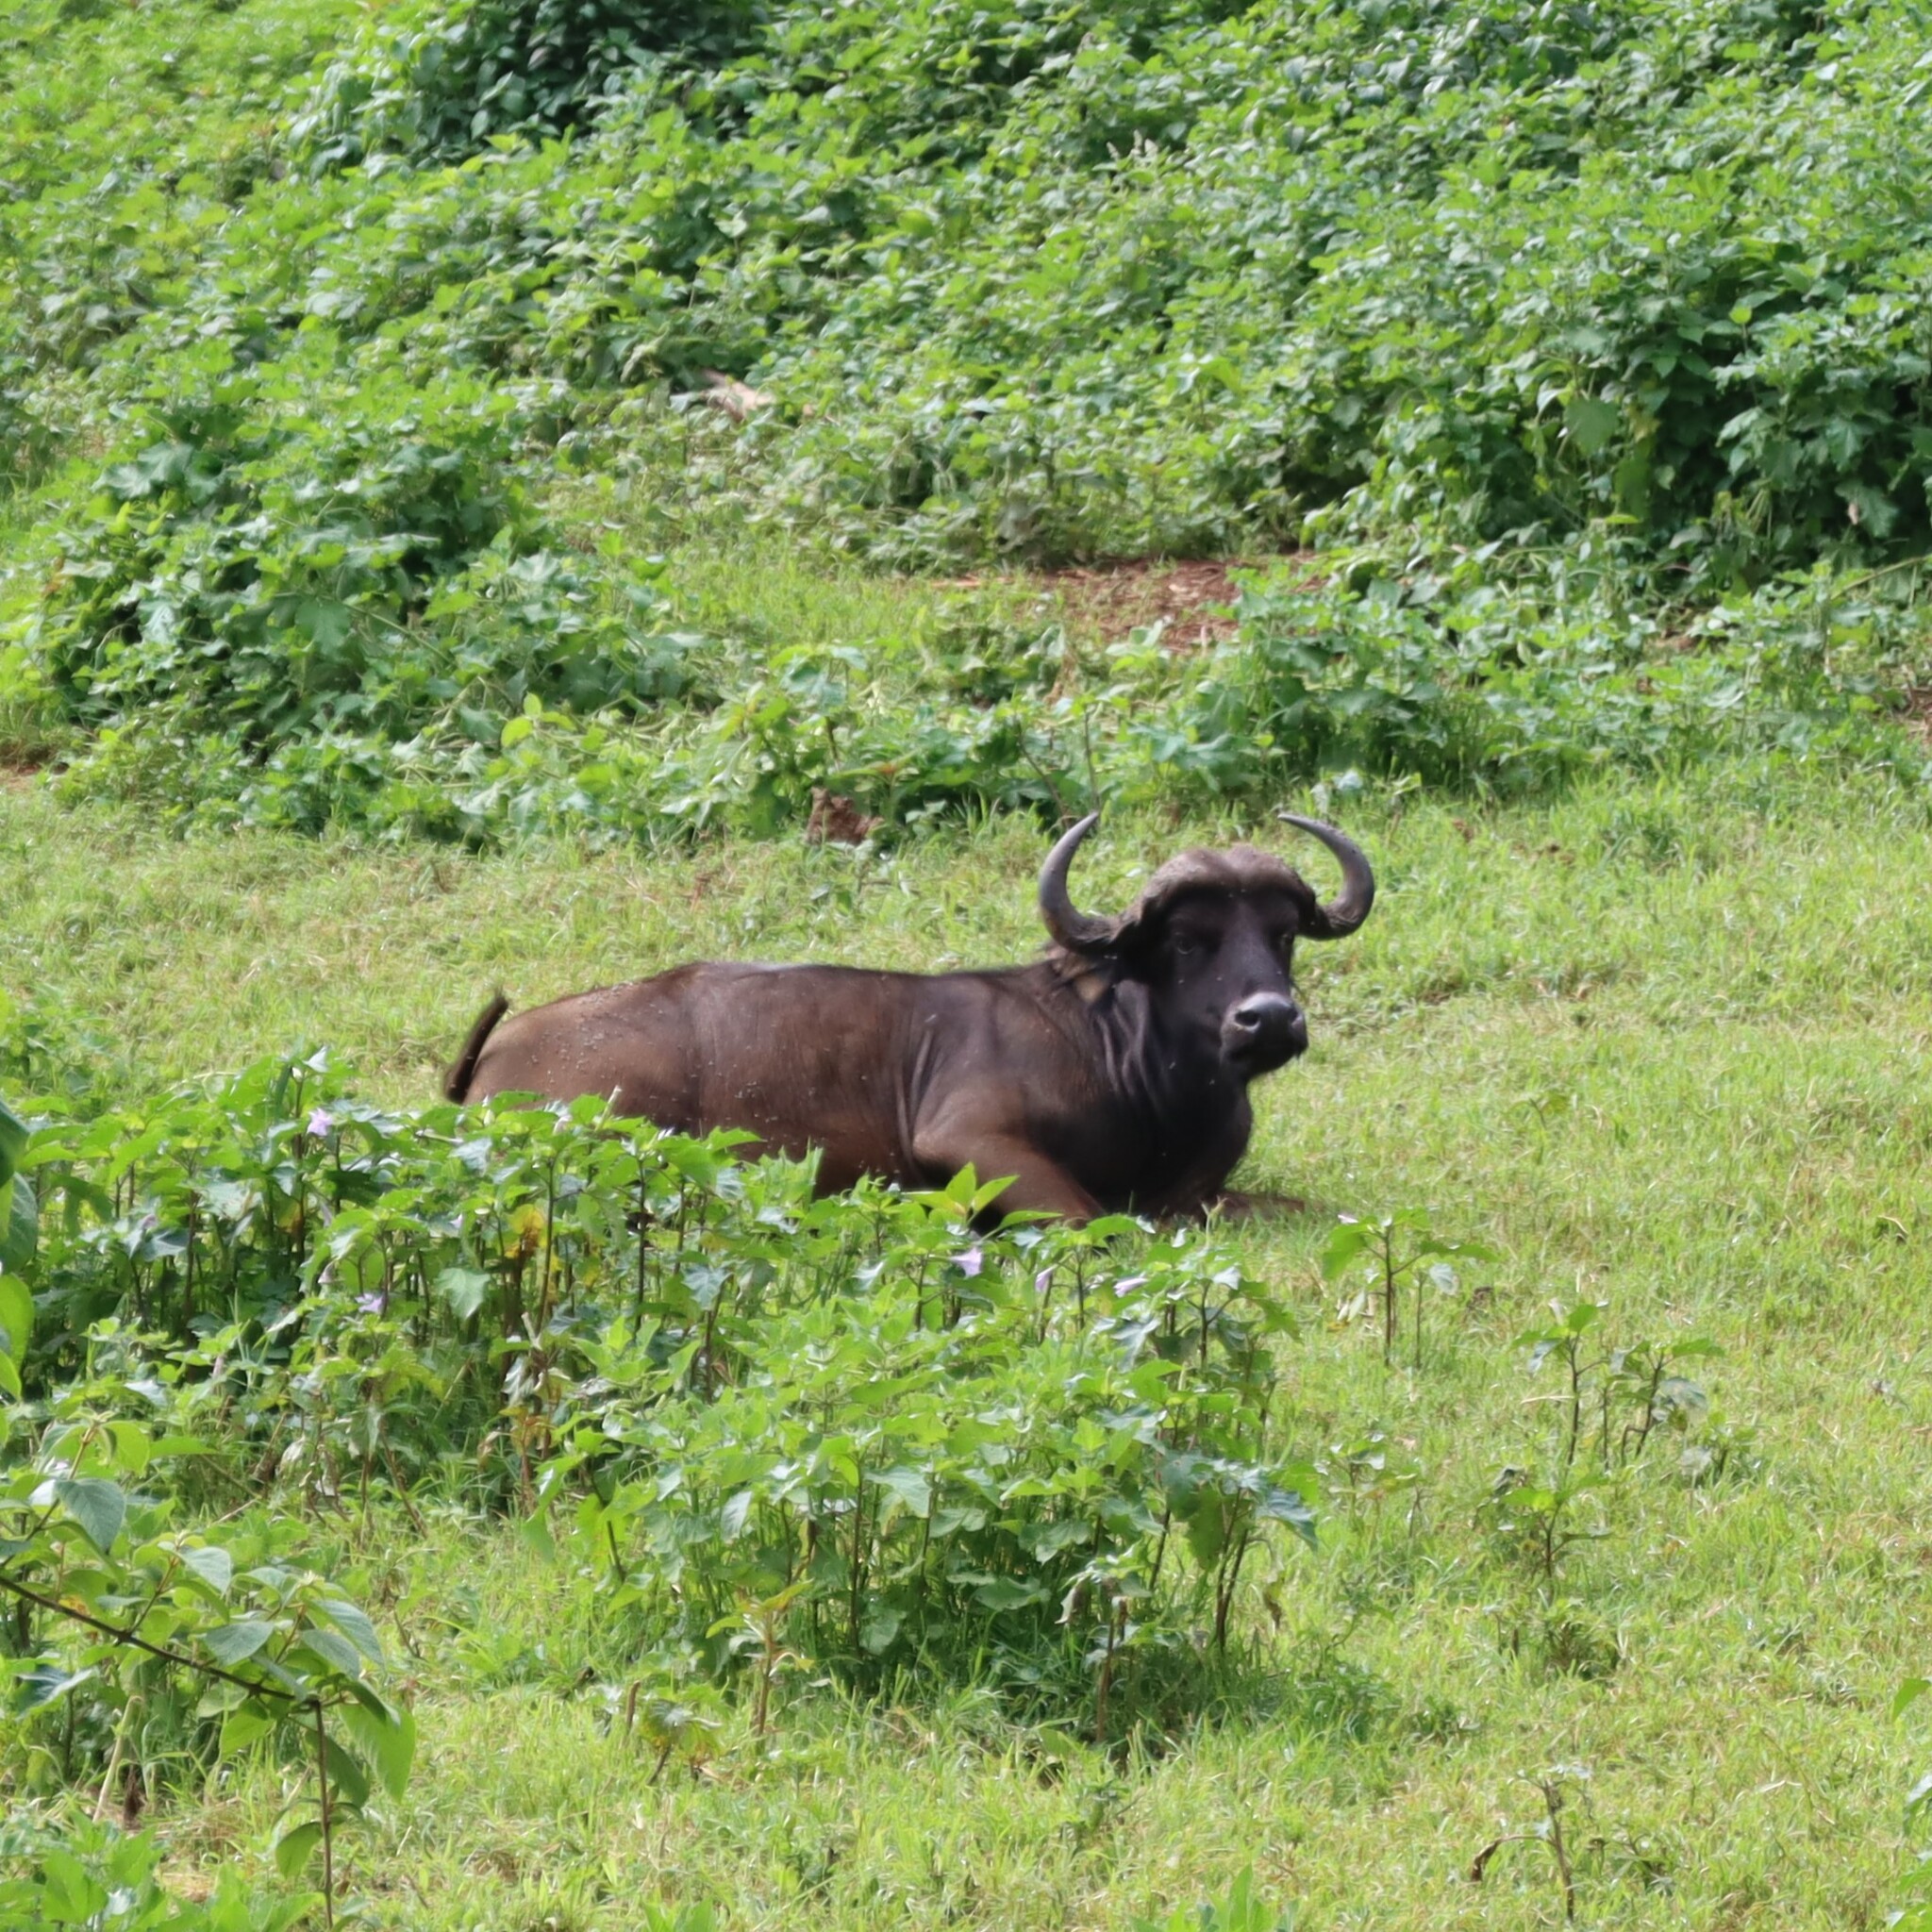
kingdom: Animalia
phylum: Chordata
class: Mammalia
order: Artiodactyla
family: Bovidae
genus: Syncerus
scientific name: Syncerus caffer
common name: African buffalo
